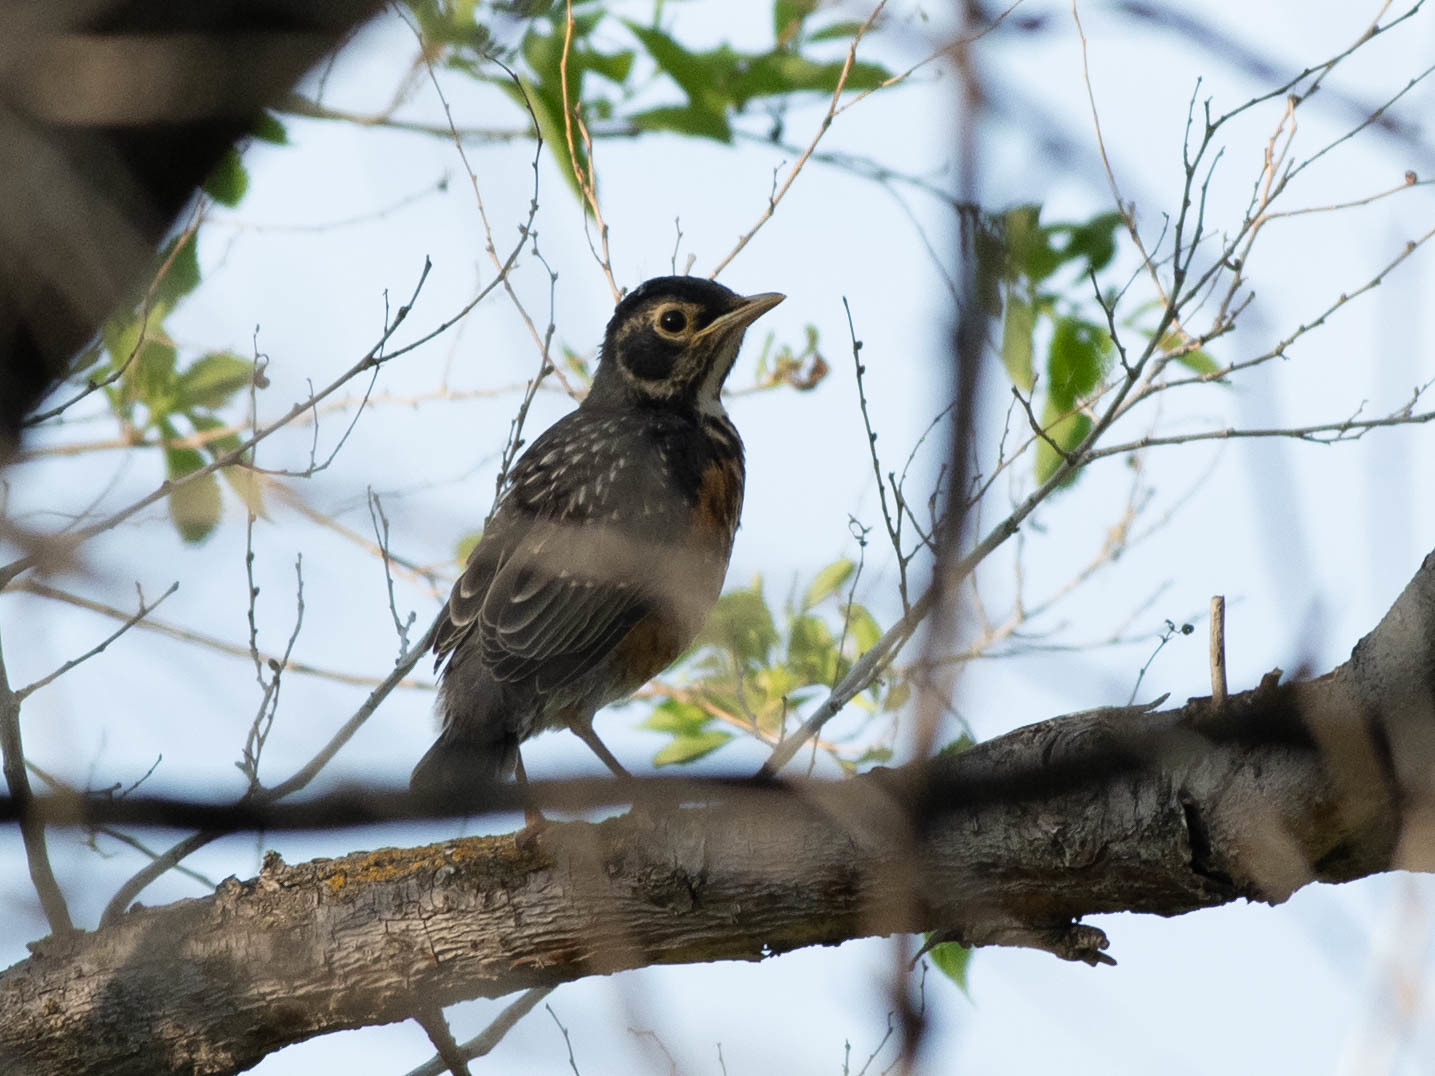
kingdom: Animalia
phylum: Chordata
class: Aves
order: Passeriformes
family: Turdidae
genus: Turdus
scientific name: Turdus migratorius
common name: American robin
